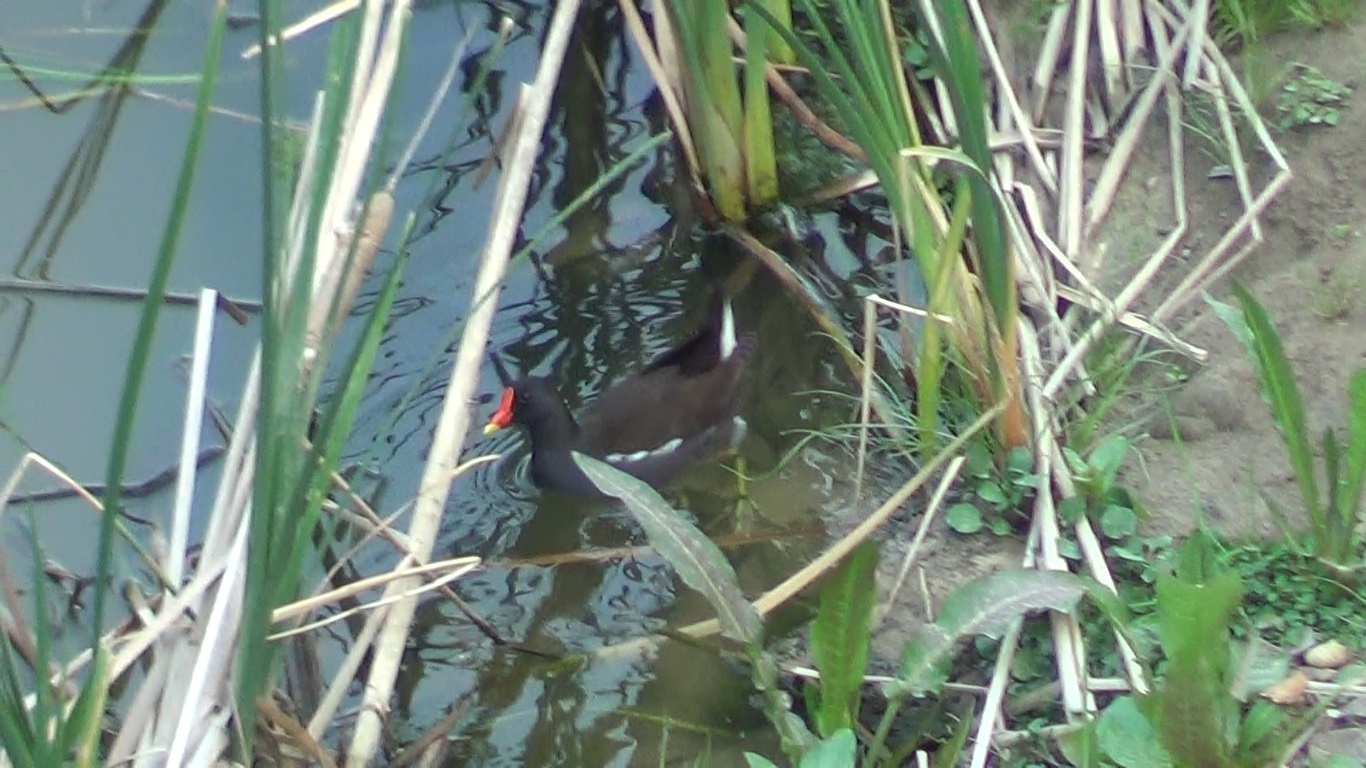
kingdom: Animalia
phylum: Chordata
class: Aves
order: Gruiformes
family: Rallidae
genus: Gallinula
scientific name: Gallinula chloropus
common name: Common moorhen
